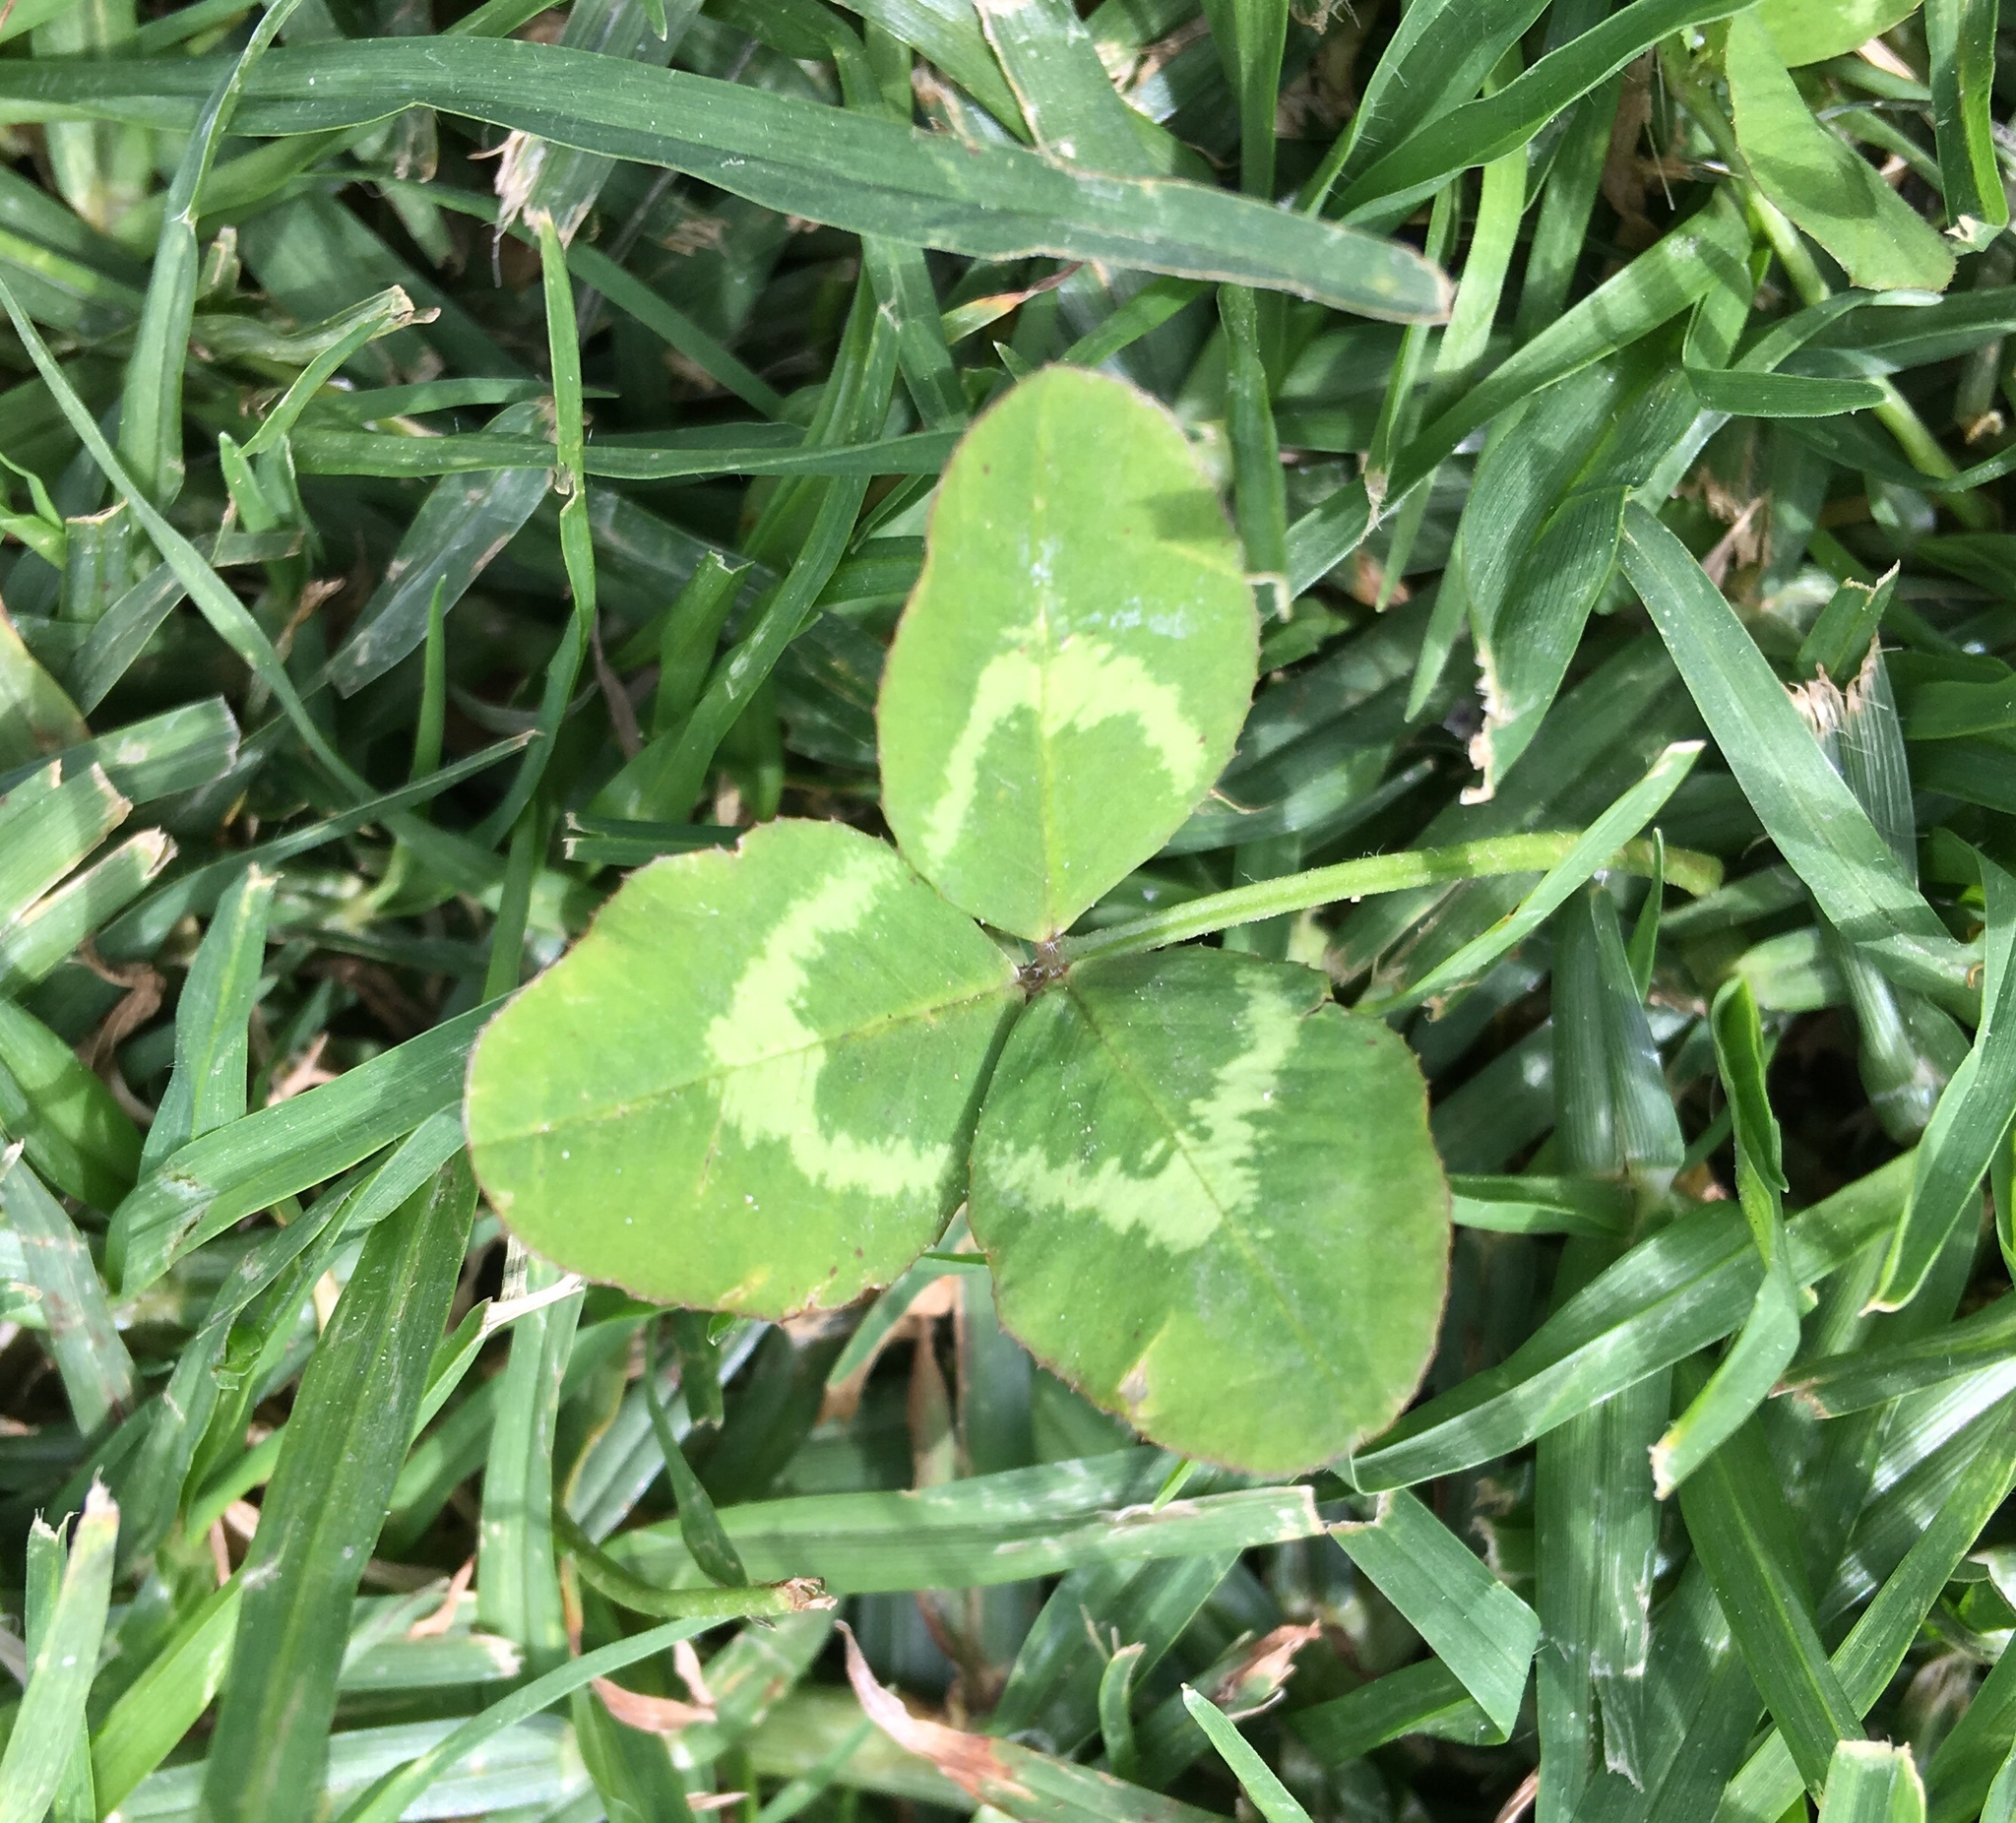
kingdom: Plantae
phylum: Tracheophyta
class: Magnoliopsida
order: Fabales
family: Fabaceae
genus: Trifolium
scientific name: Trifolium repens
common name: White clover
